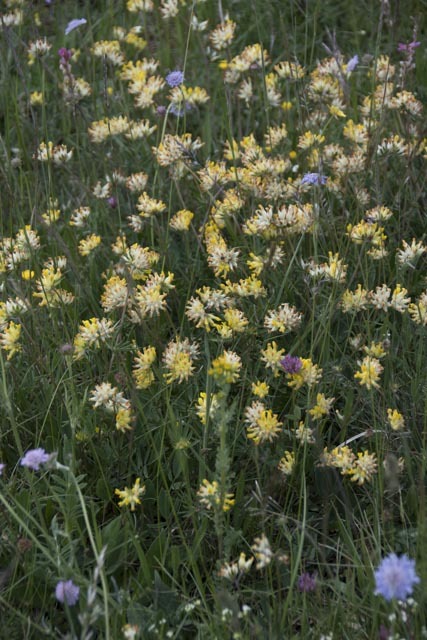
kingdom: Plantae
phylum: Tracheophyta
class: Magnoliopsida
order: Fabales
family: Fabaceae
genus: Anthyllis
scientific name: Anthyllis vulneraria
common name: Kidney vetch
